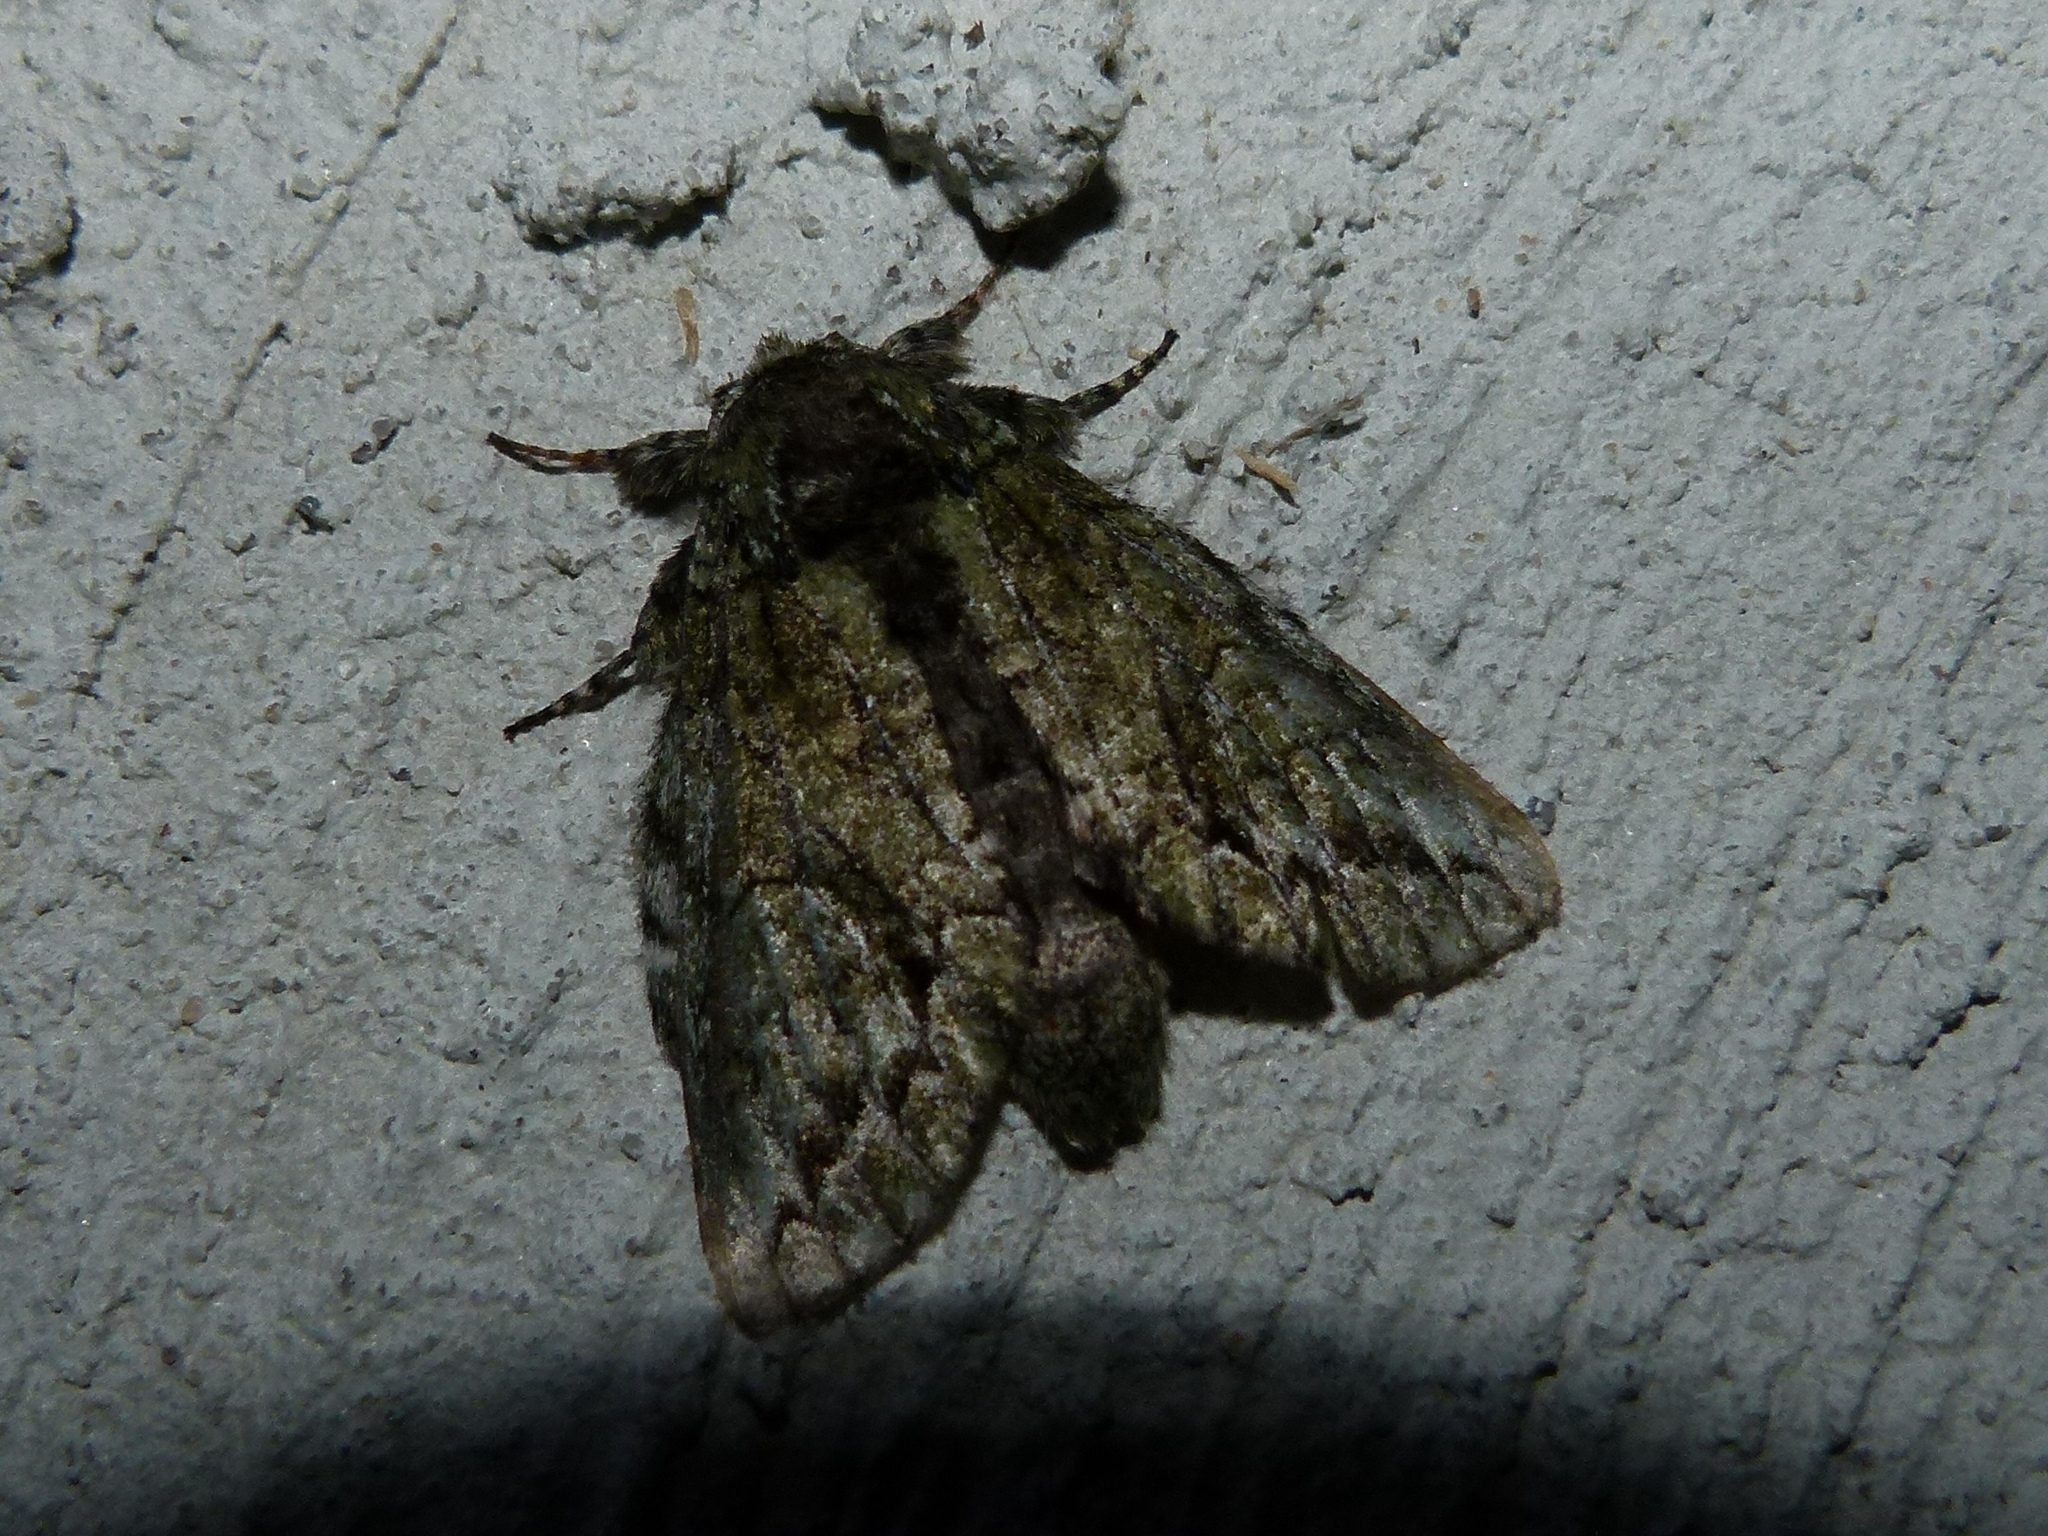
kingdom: Animalia
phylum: Arthropoda
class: Insecta
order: Lepidoptera
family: Notodontidae
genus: Heterocampa
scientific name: Heterocampa
